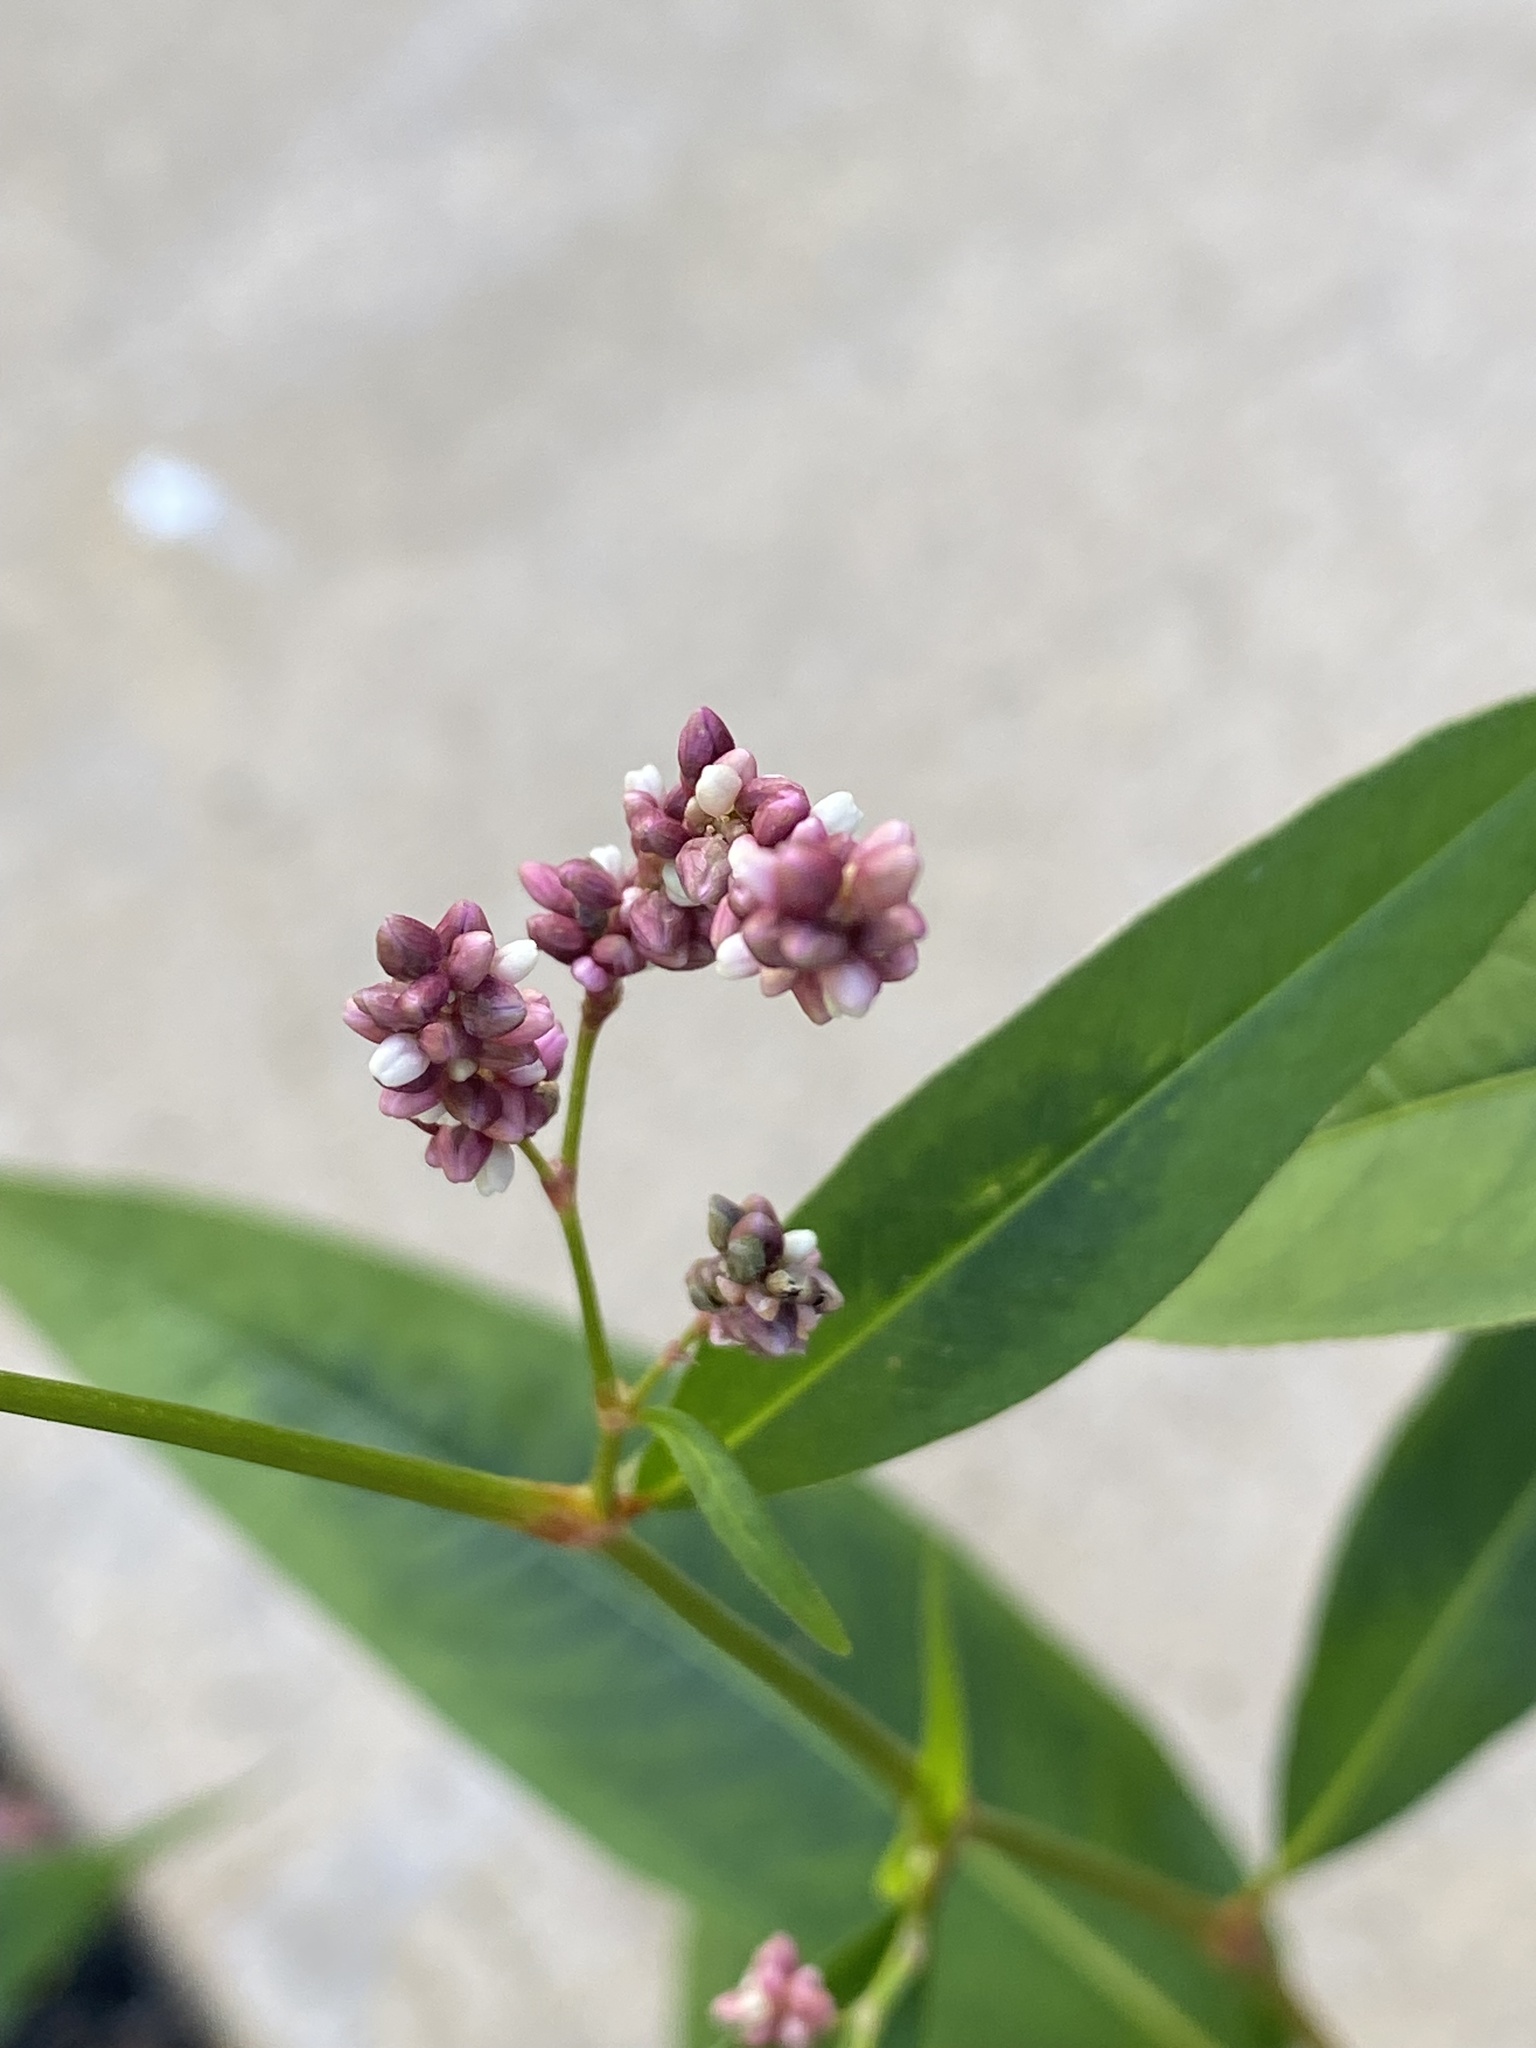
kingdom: Plantae
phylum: Tracheophyta
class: Magnoliopsida
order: Caryophyllales
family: Polygonaceae
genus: Persicaria
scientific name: Persicaria extremiorientalis
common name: Far-eastern smartweed
